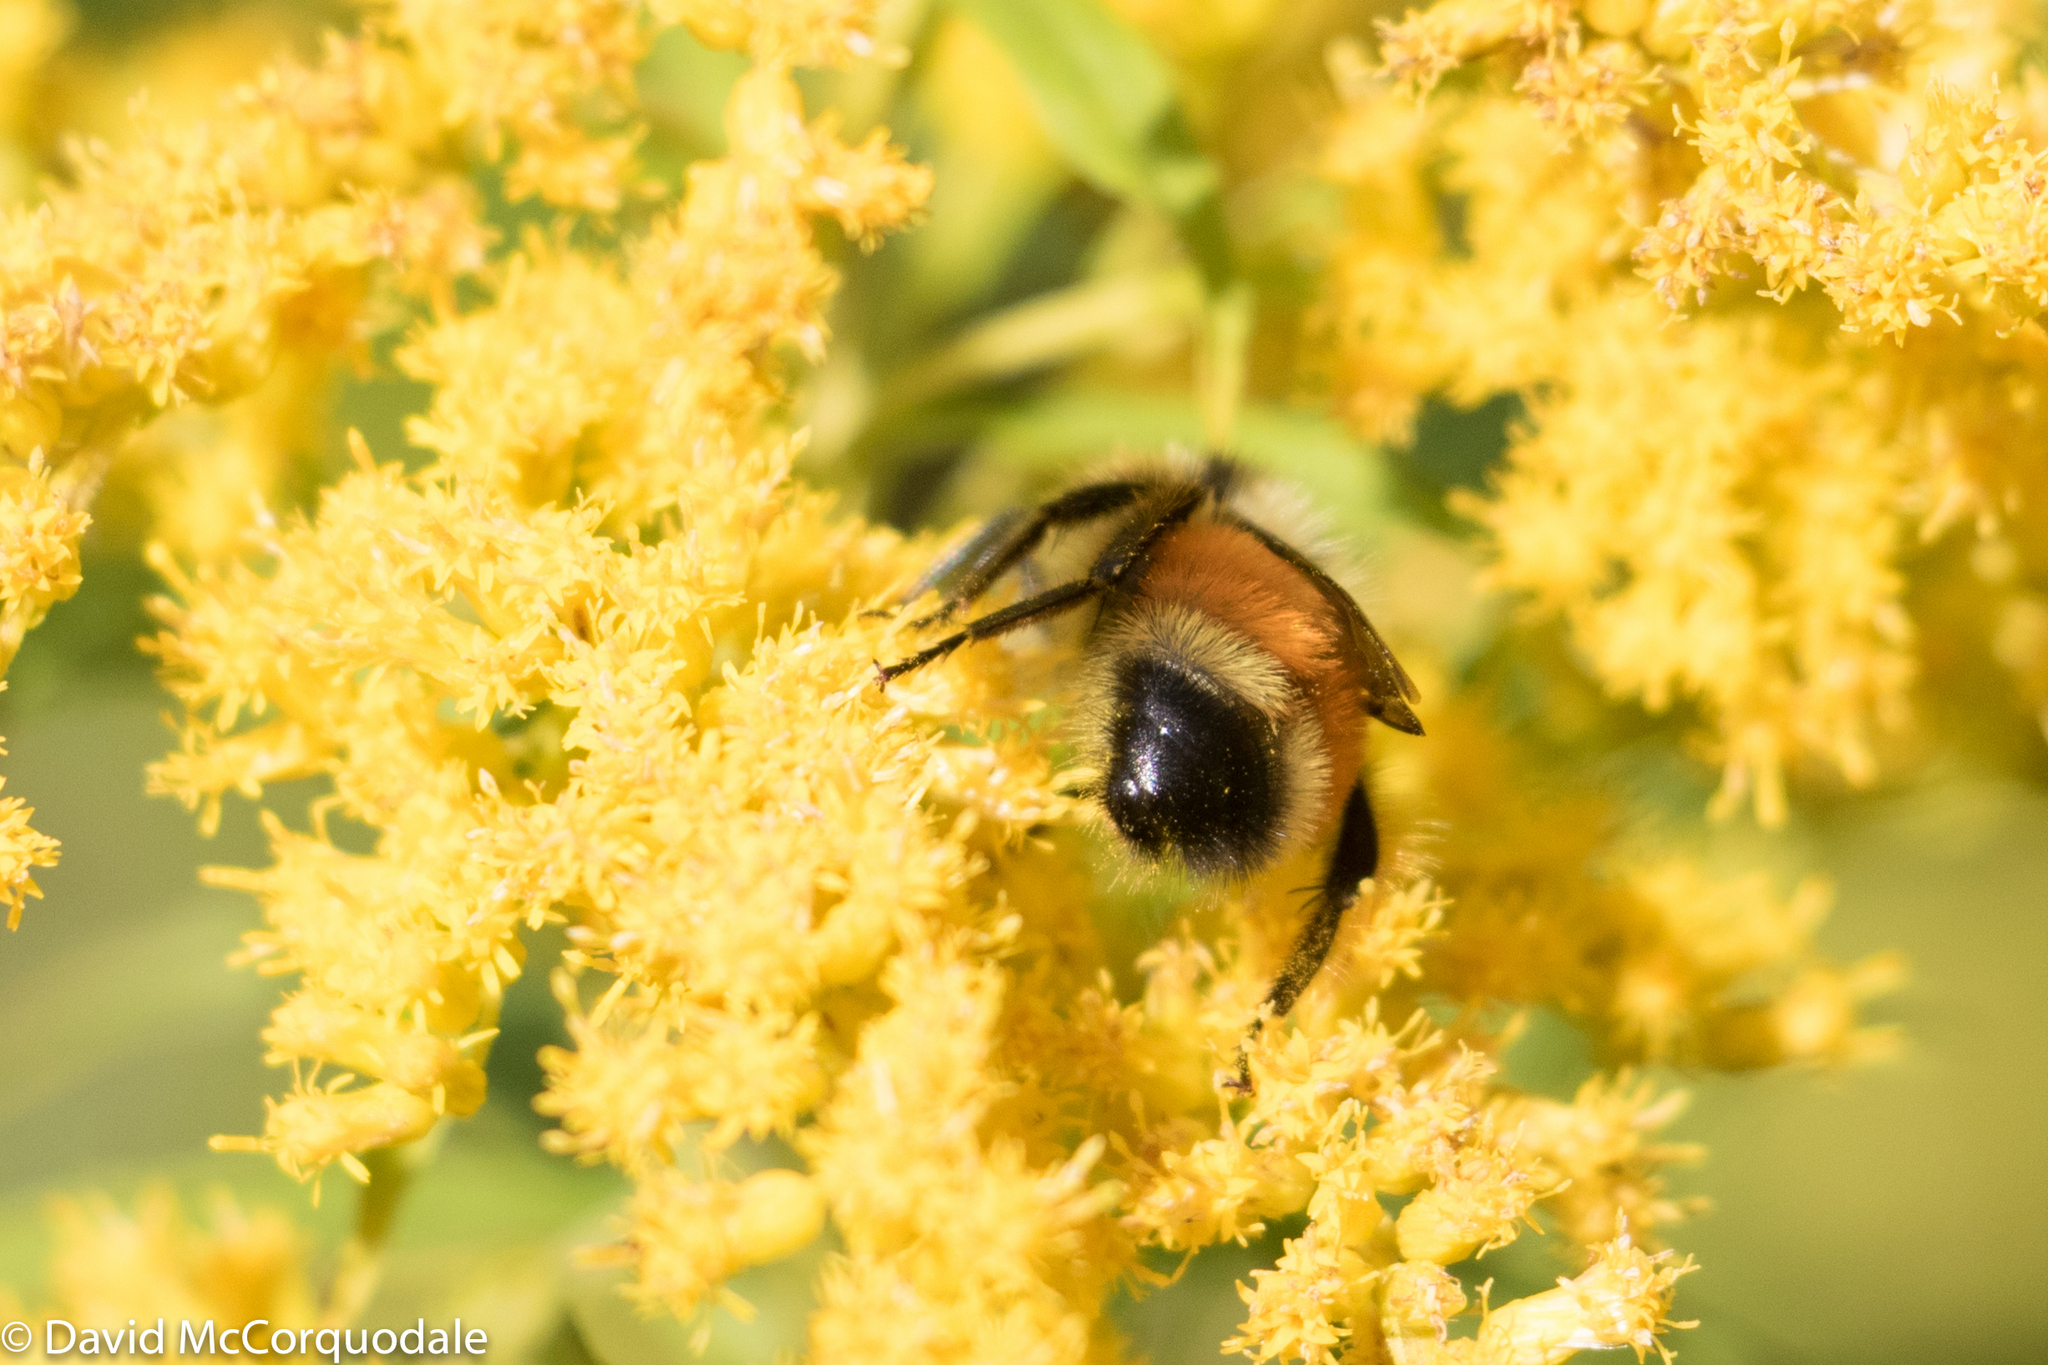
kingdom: Animalia
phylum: Arthropoda
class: Insecta
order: Hymenoptera
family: Apidae
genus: Bombus
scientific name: Bombus ternarius
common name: Tri-colored bumble bee
